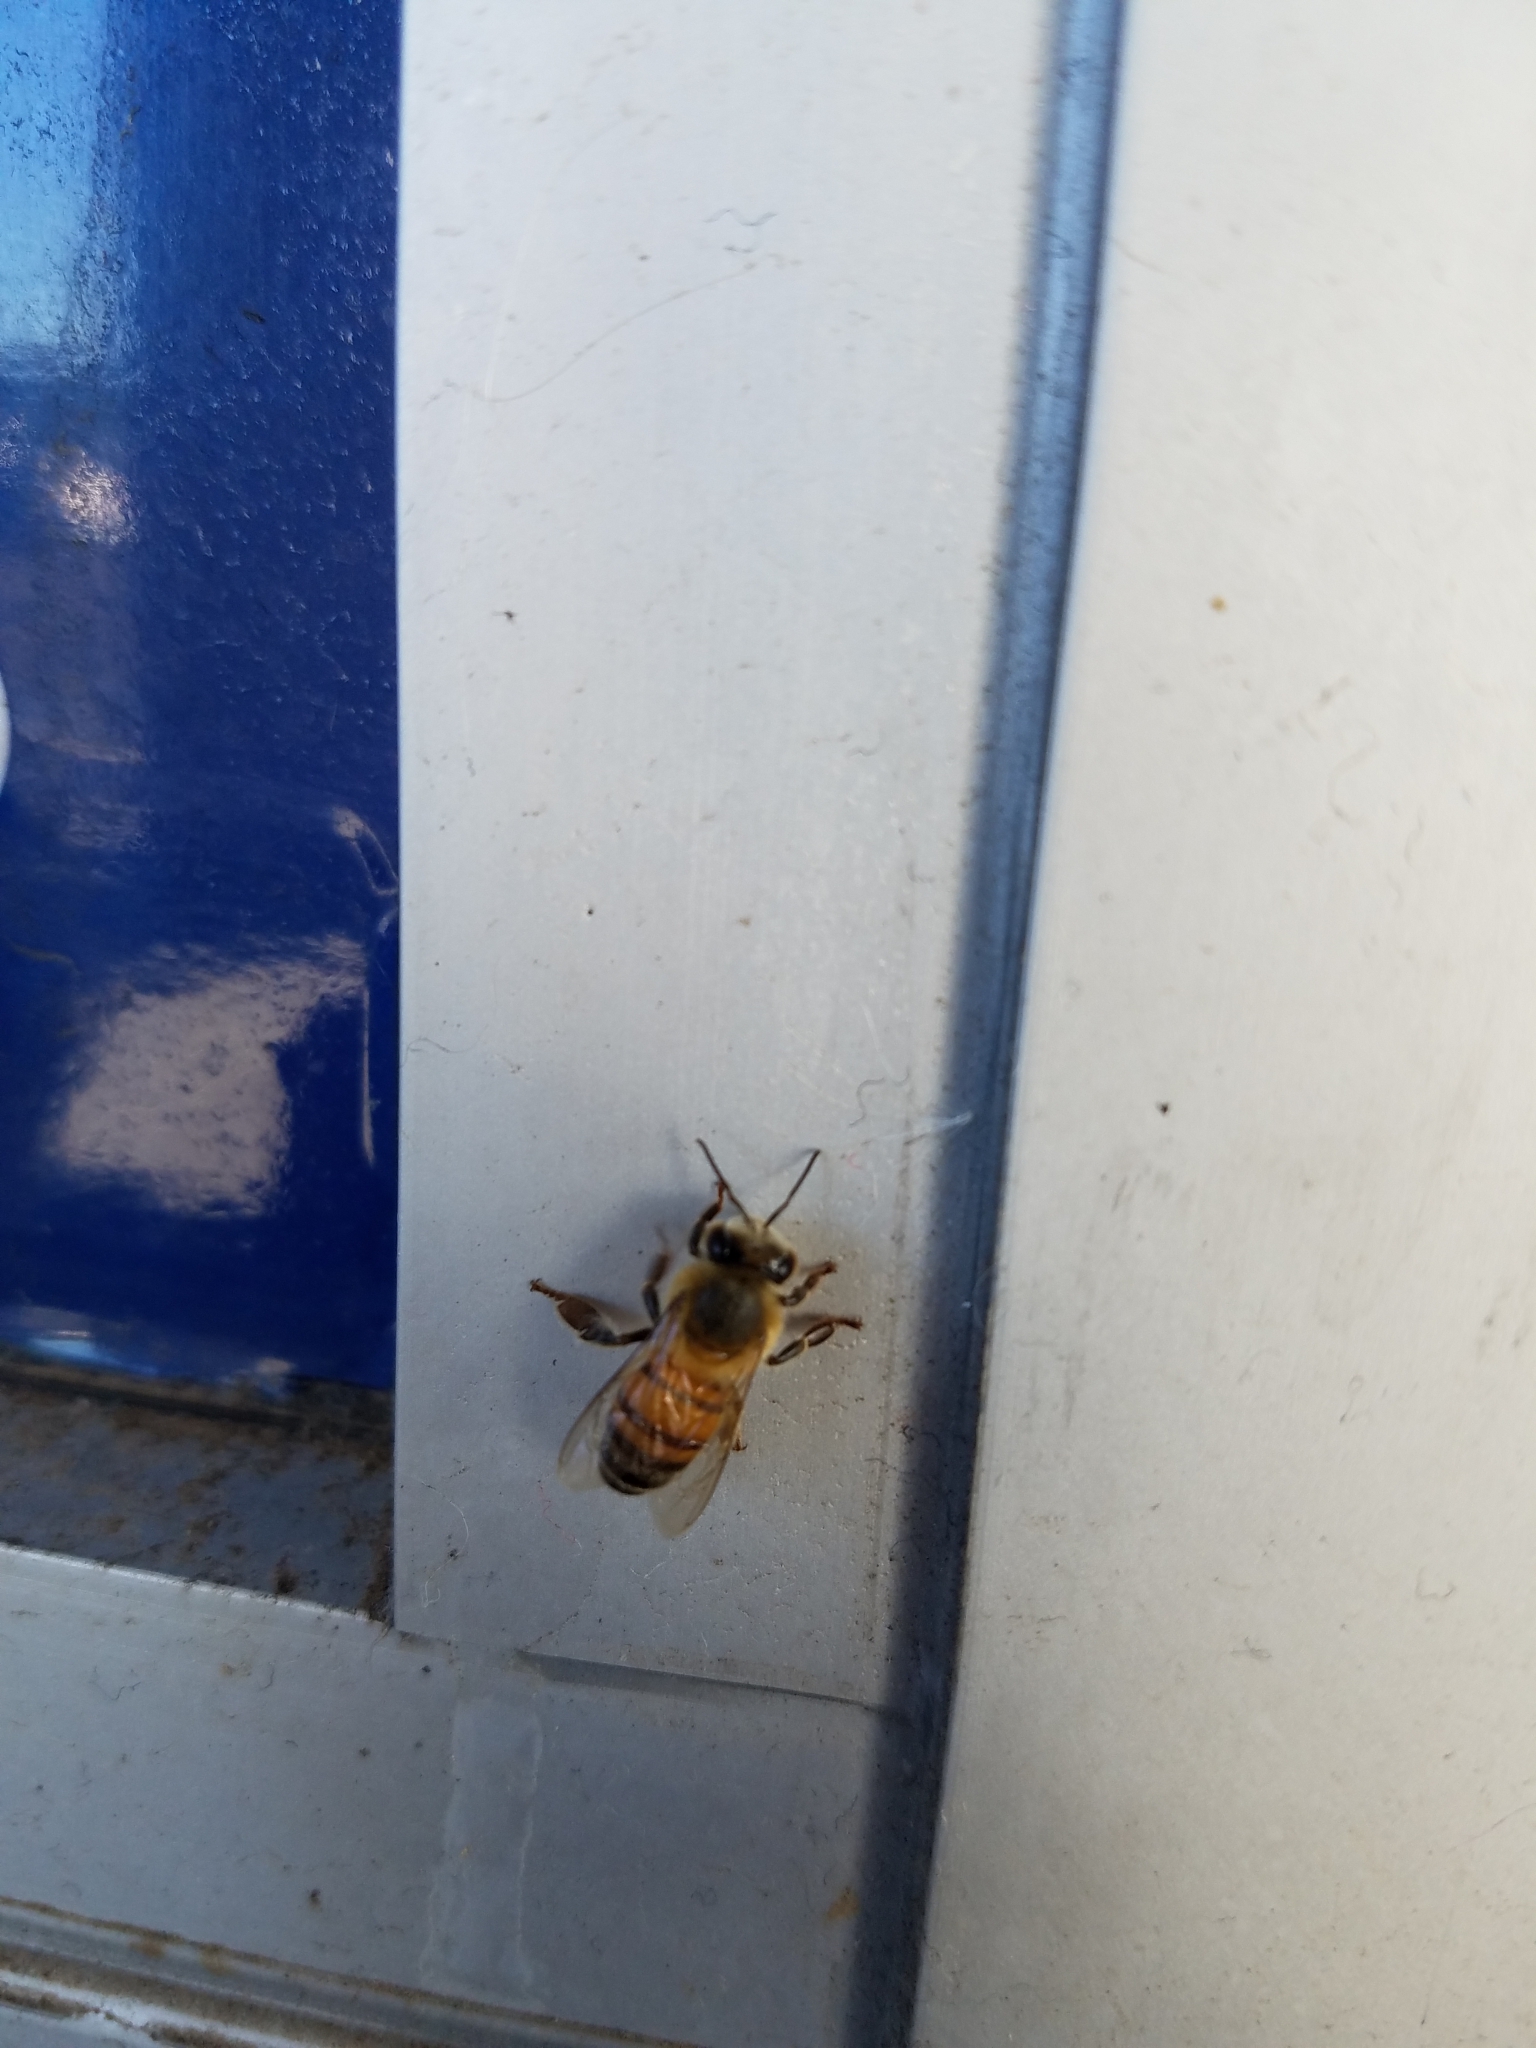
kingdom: Animalia
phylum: Arthropoda
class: Insecta
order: Hymenoptera
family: Apidae
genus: Apis
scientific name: Apis mellifera
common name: Honey bee
